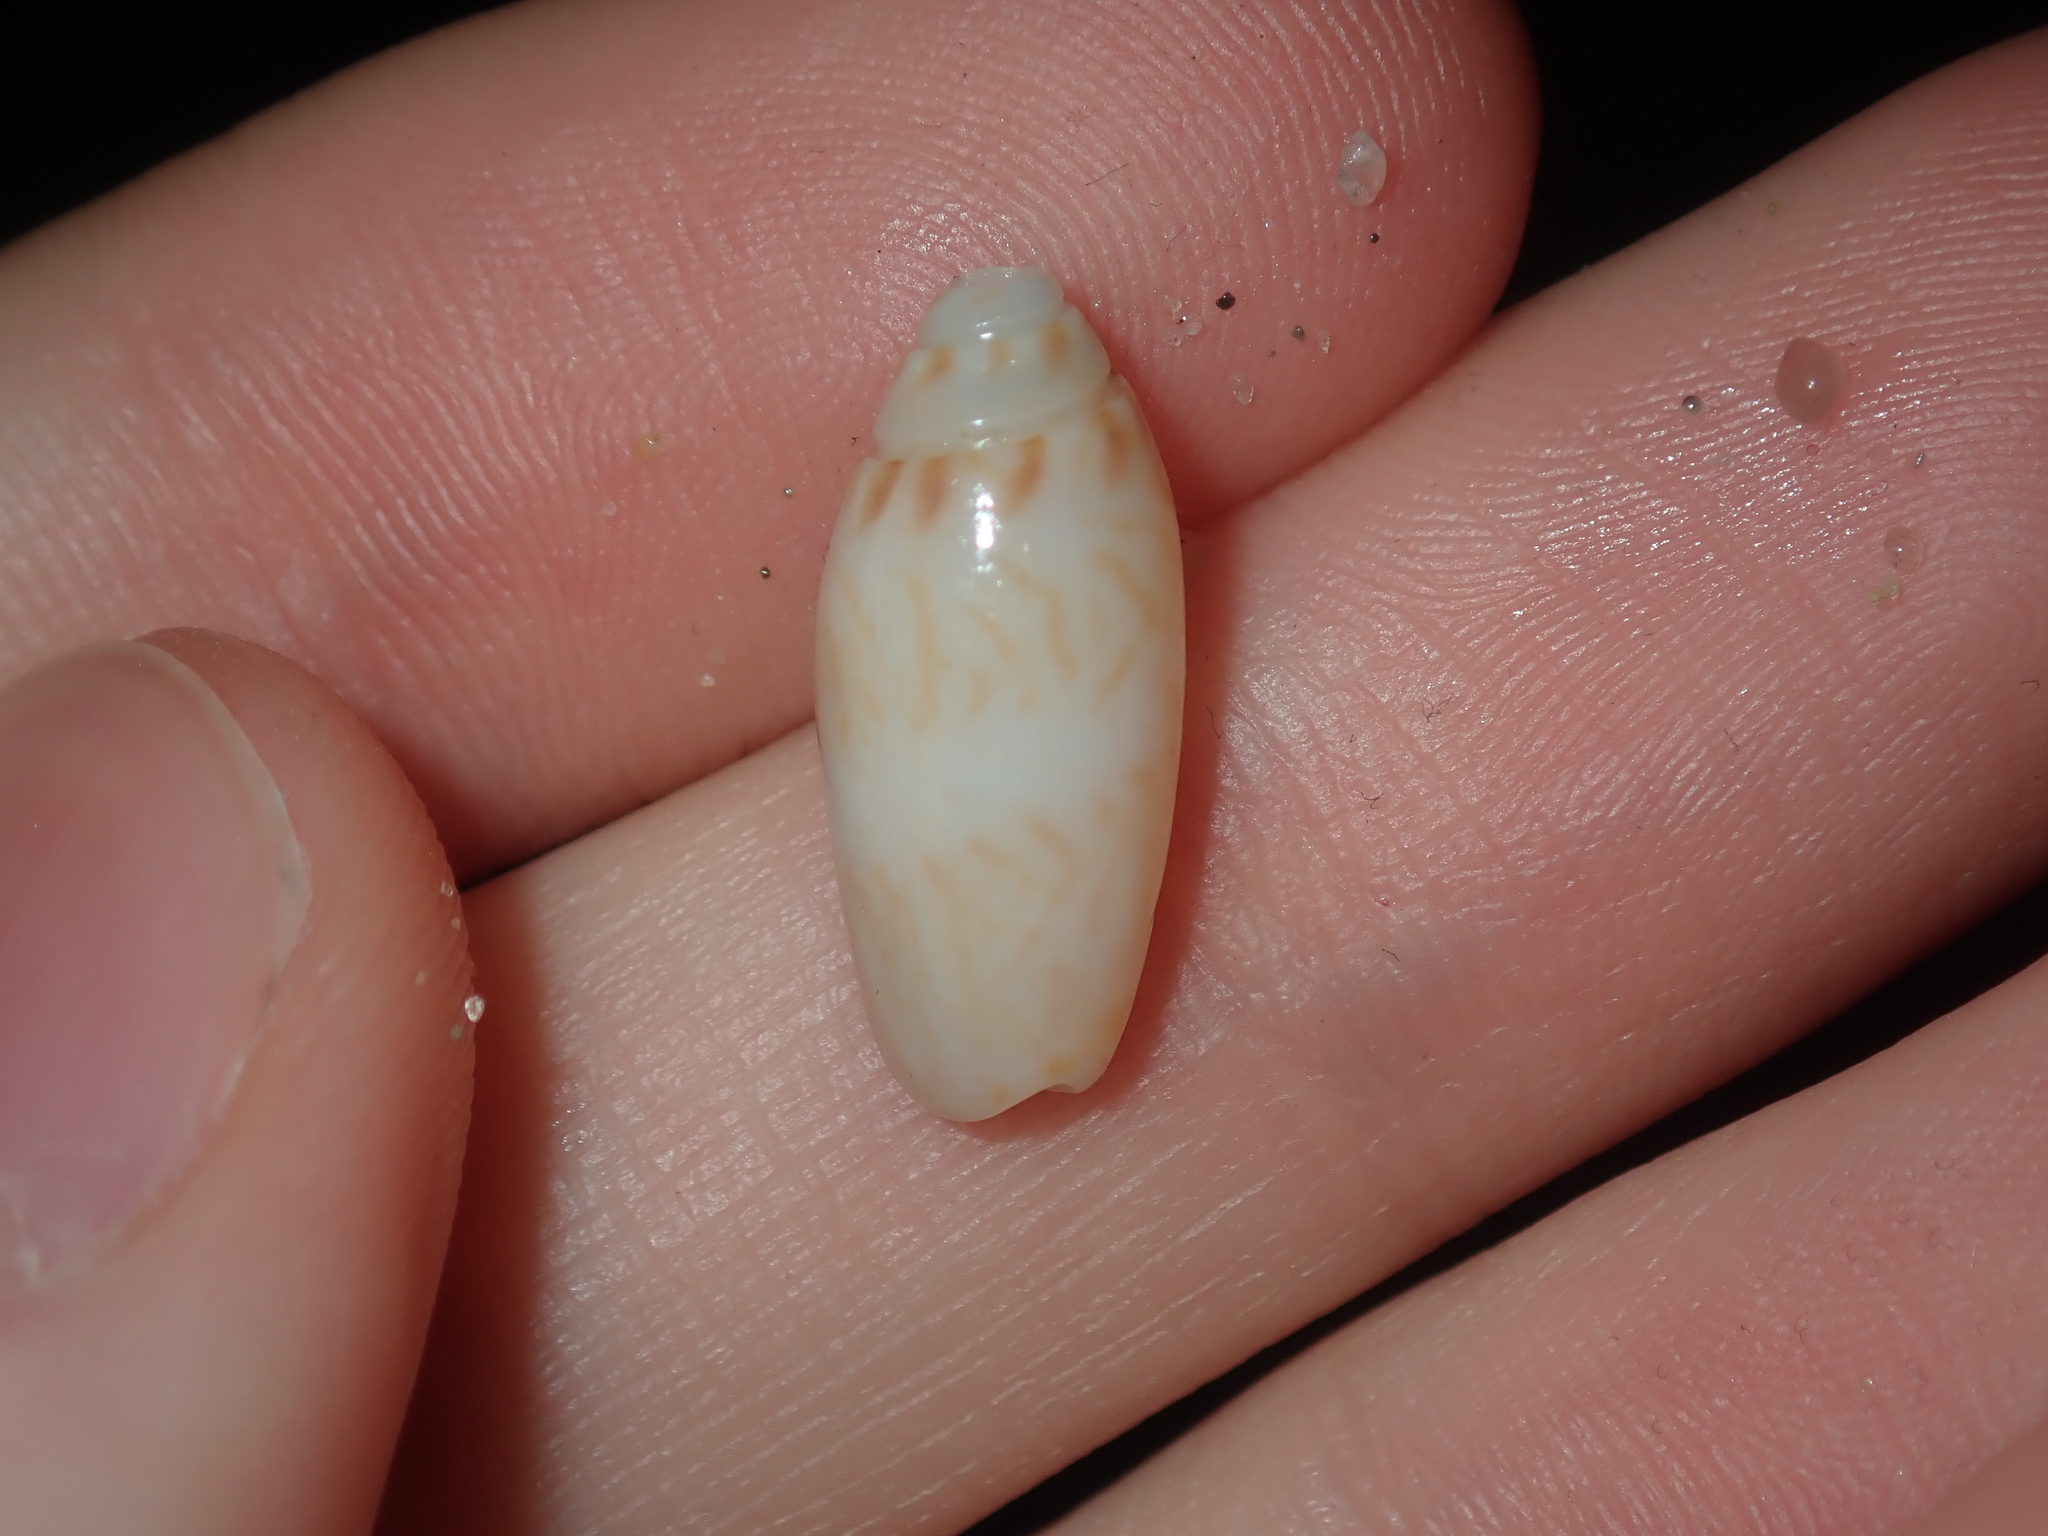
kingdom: Animalia
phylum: Mollusca
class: Gastropoda
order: Neogastropoda
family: Olividae
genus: Oliva
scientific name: Oliva australis
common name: Australian olive
